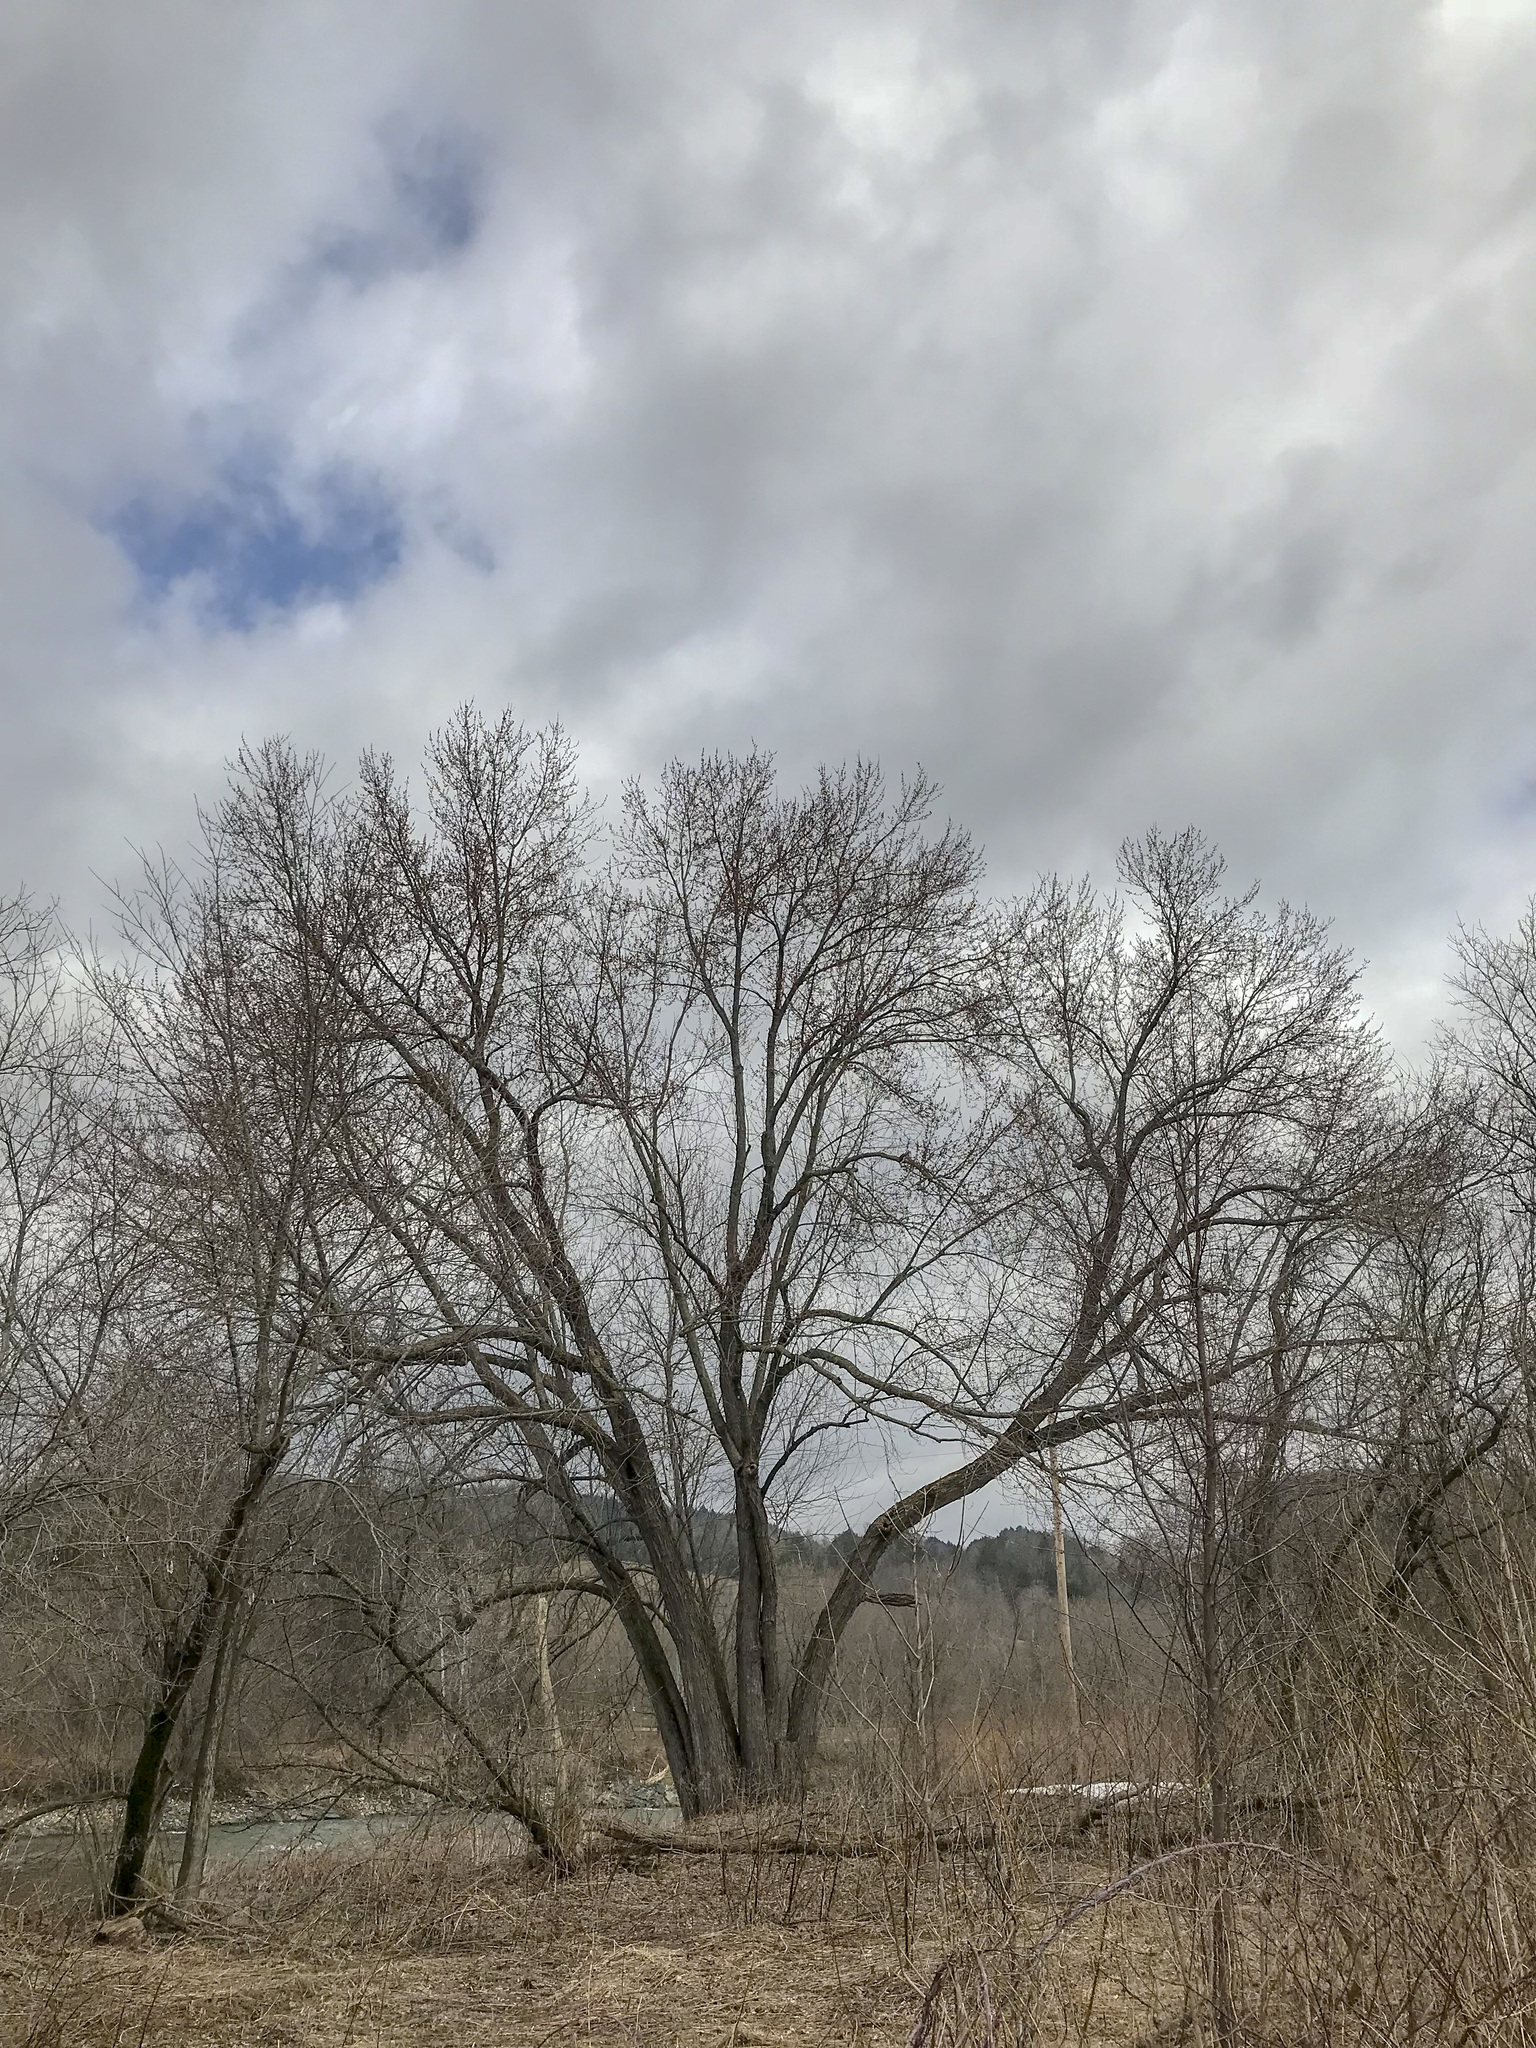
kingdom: Plantae
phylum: Tracheophyta
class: Magnoliopsida
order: Sapindales
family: Sapindaceae
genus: Acer
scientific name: Acer saccharinum
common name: Silver maple
